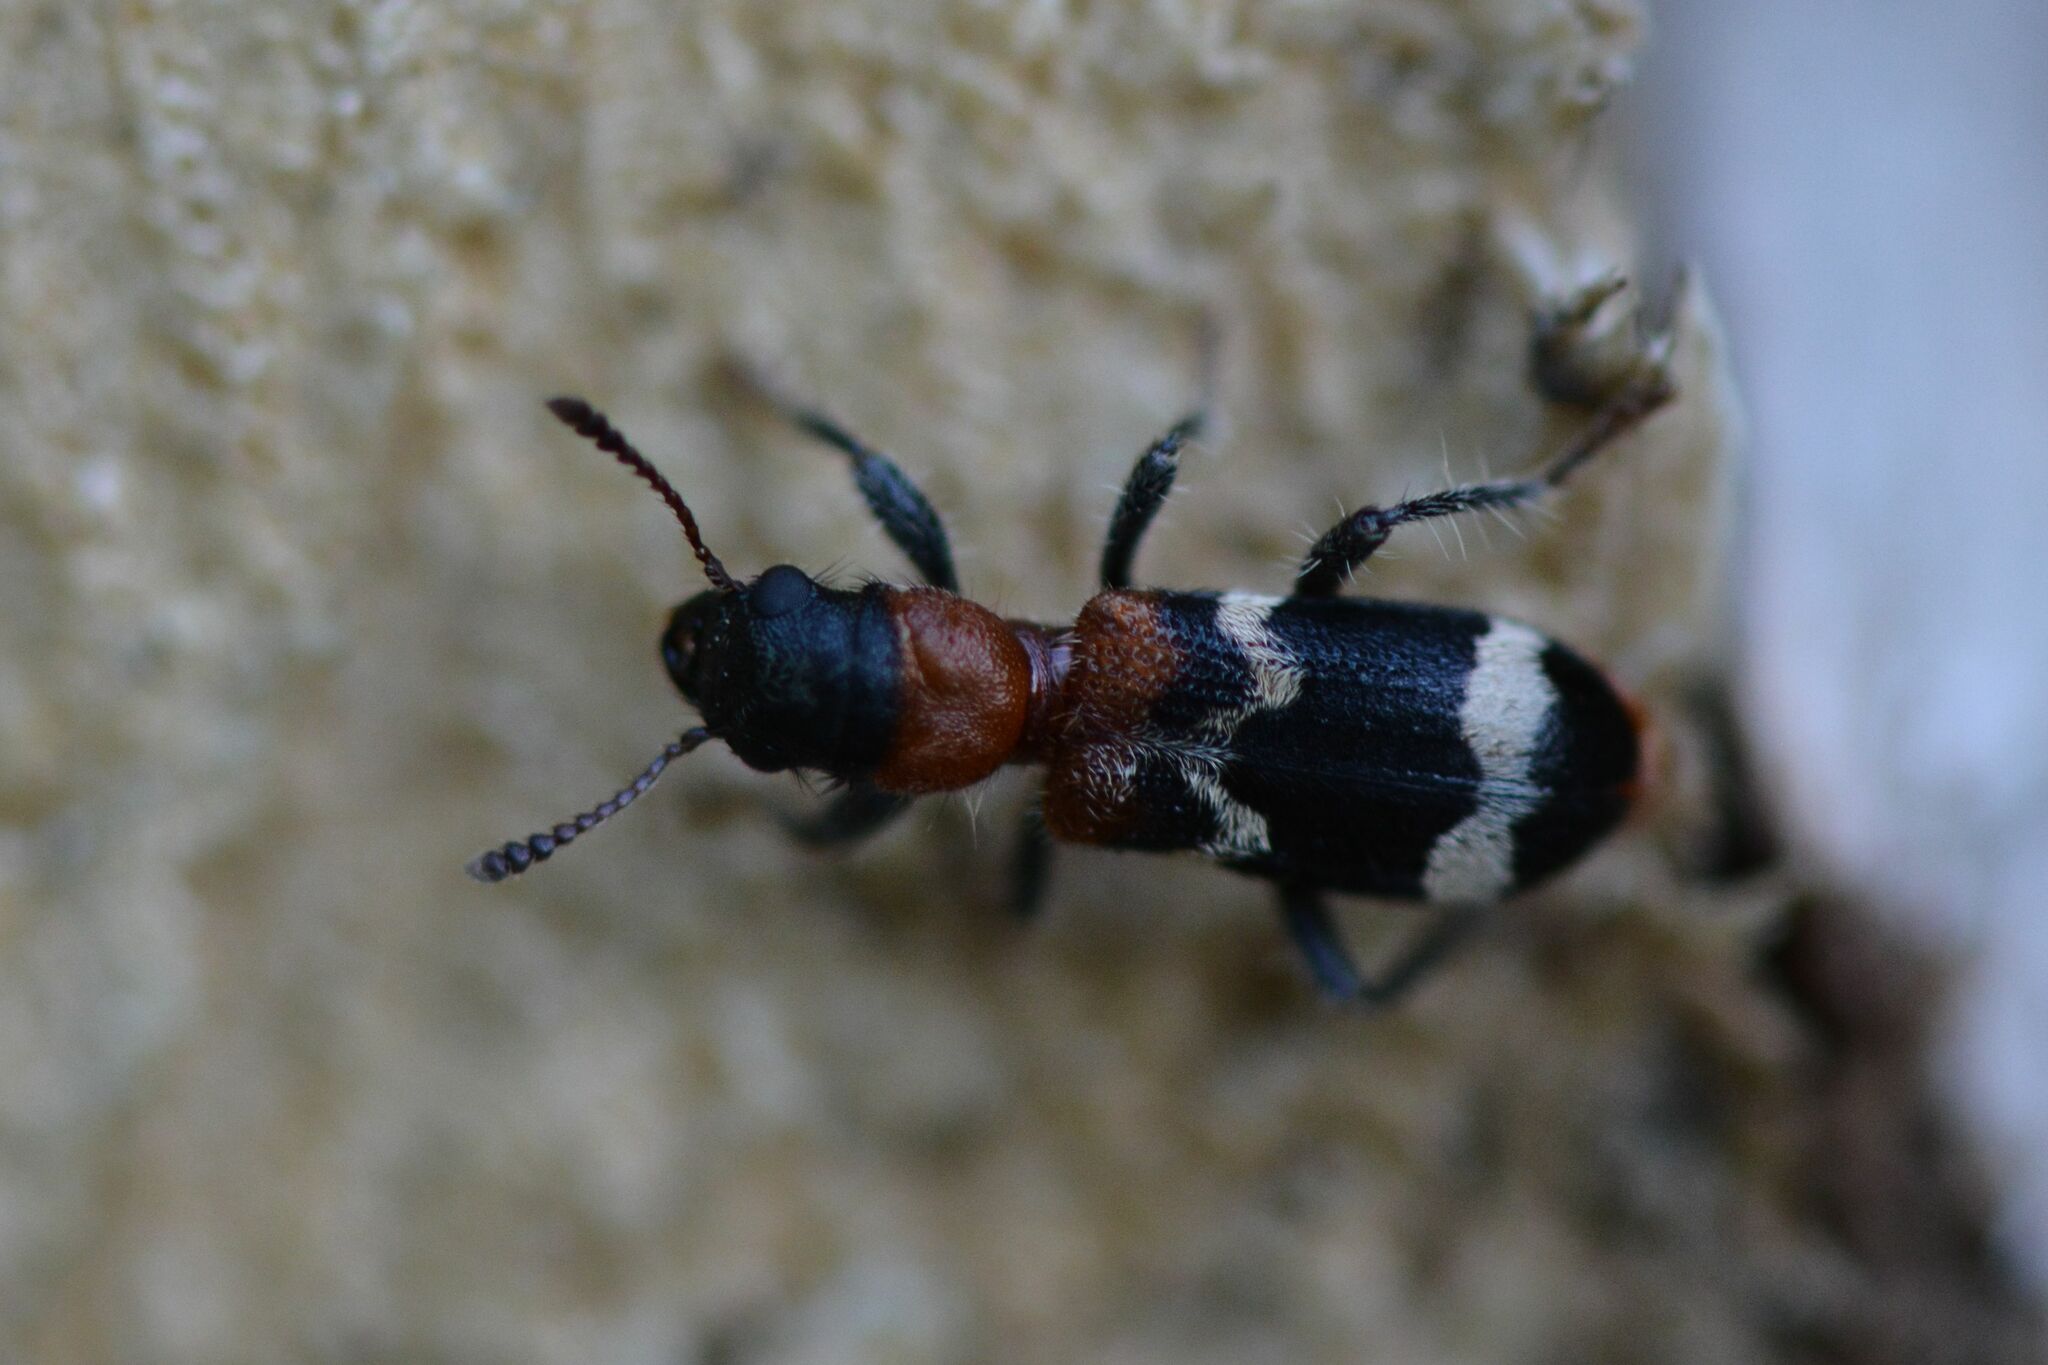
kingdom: Animalia
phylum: Arthropoda
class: Insecta
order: Coleoptera
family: Cleridae
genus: Thanasimus
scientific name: Thanasimus formicarius
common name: Ant beetle
